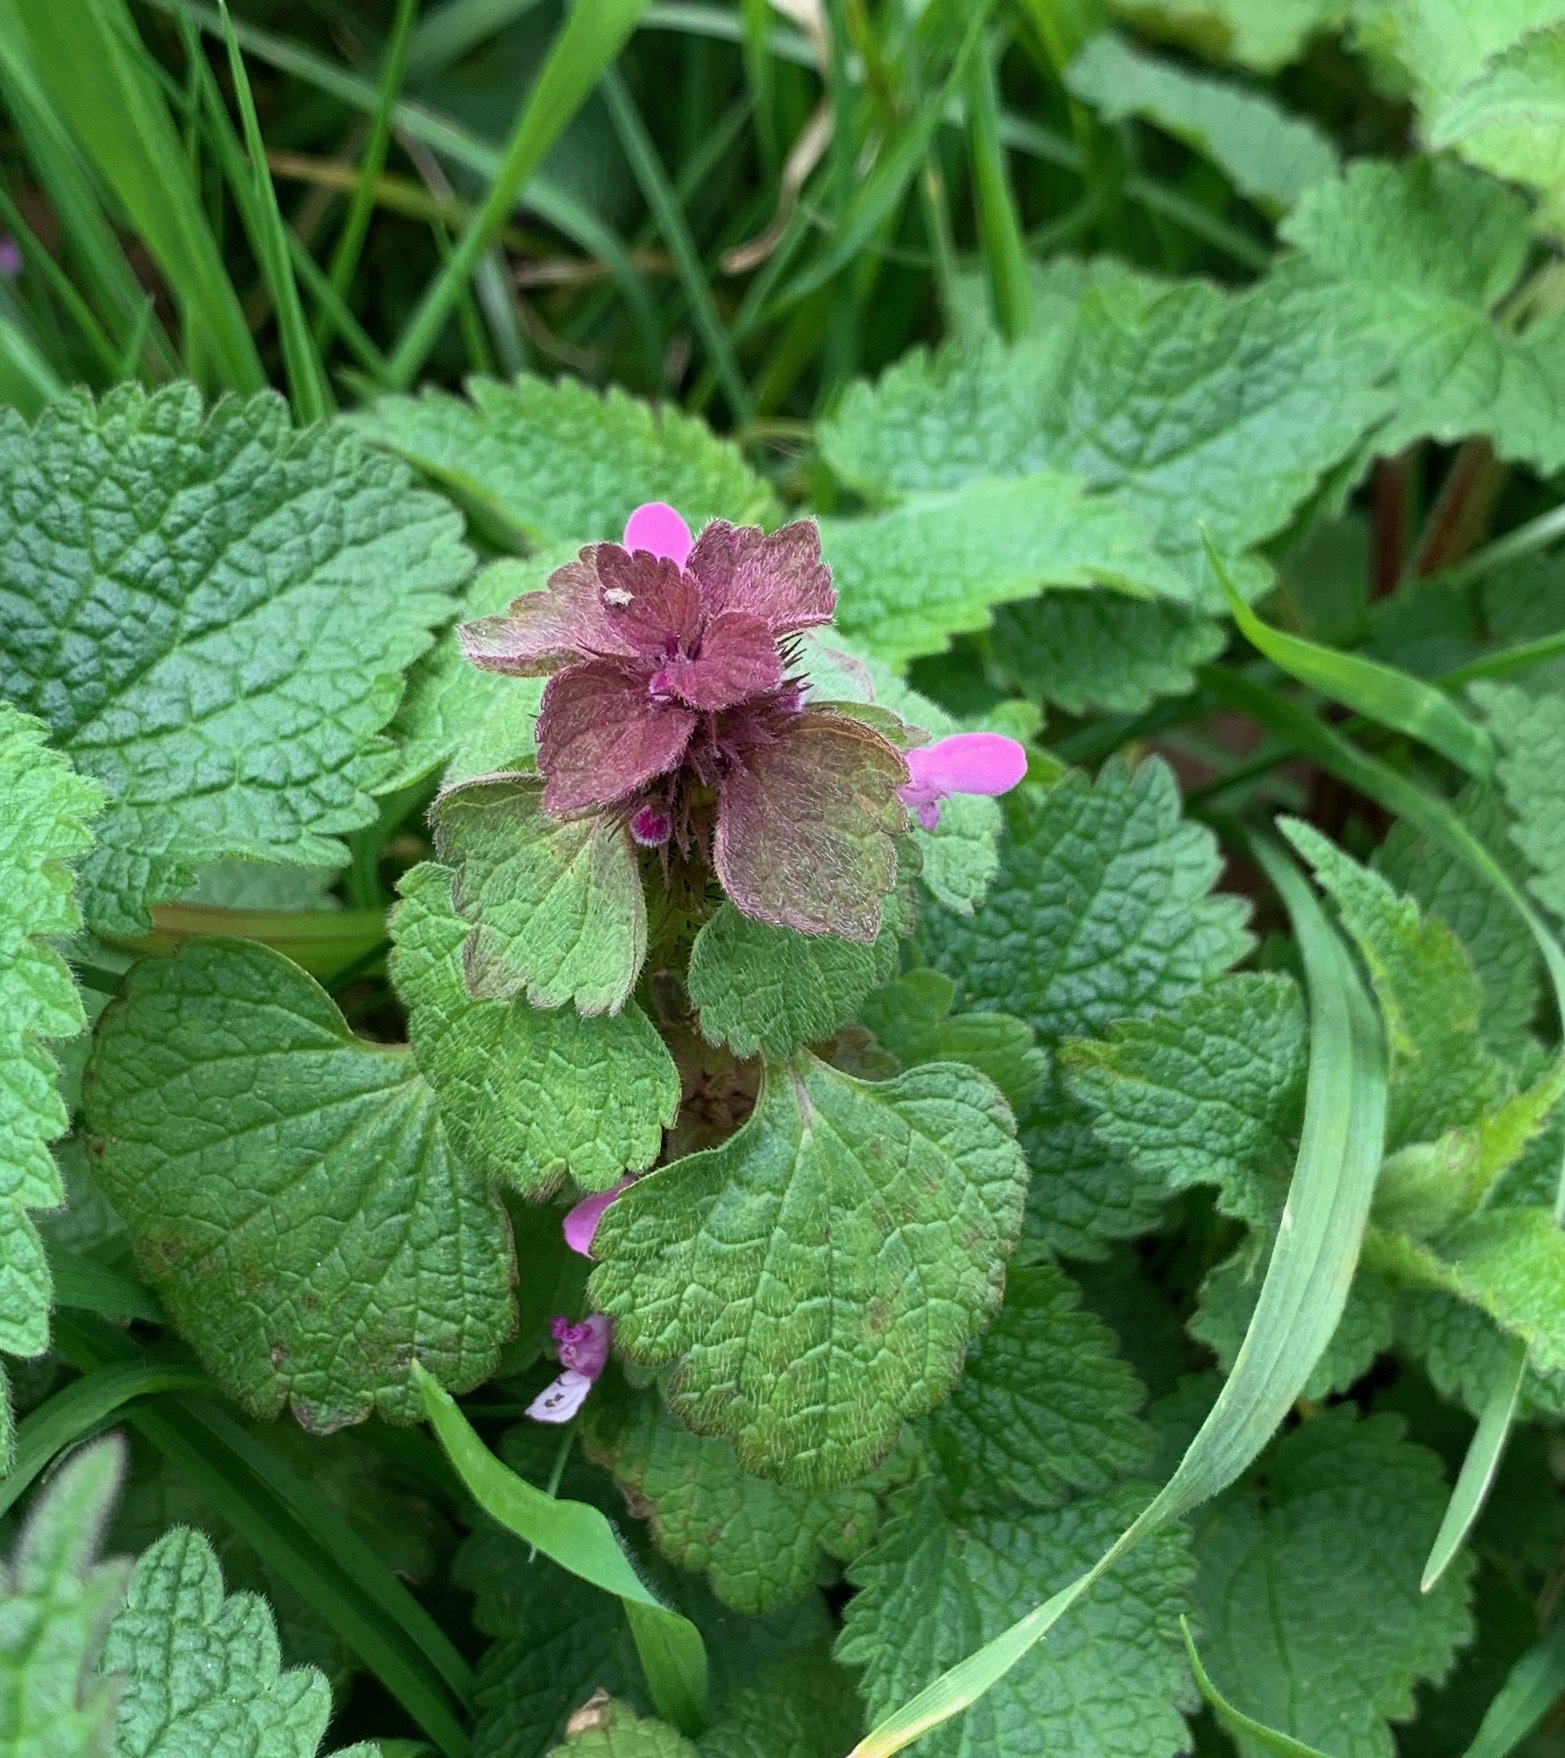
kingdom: Plantae
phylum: Tracheophyta
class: Magnoliopsida
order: Lamiales
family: Lamiaceae
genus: Lamium
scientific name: Lamium purpureum
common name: Red dead-nettle
